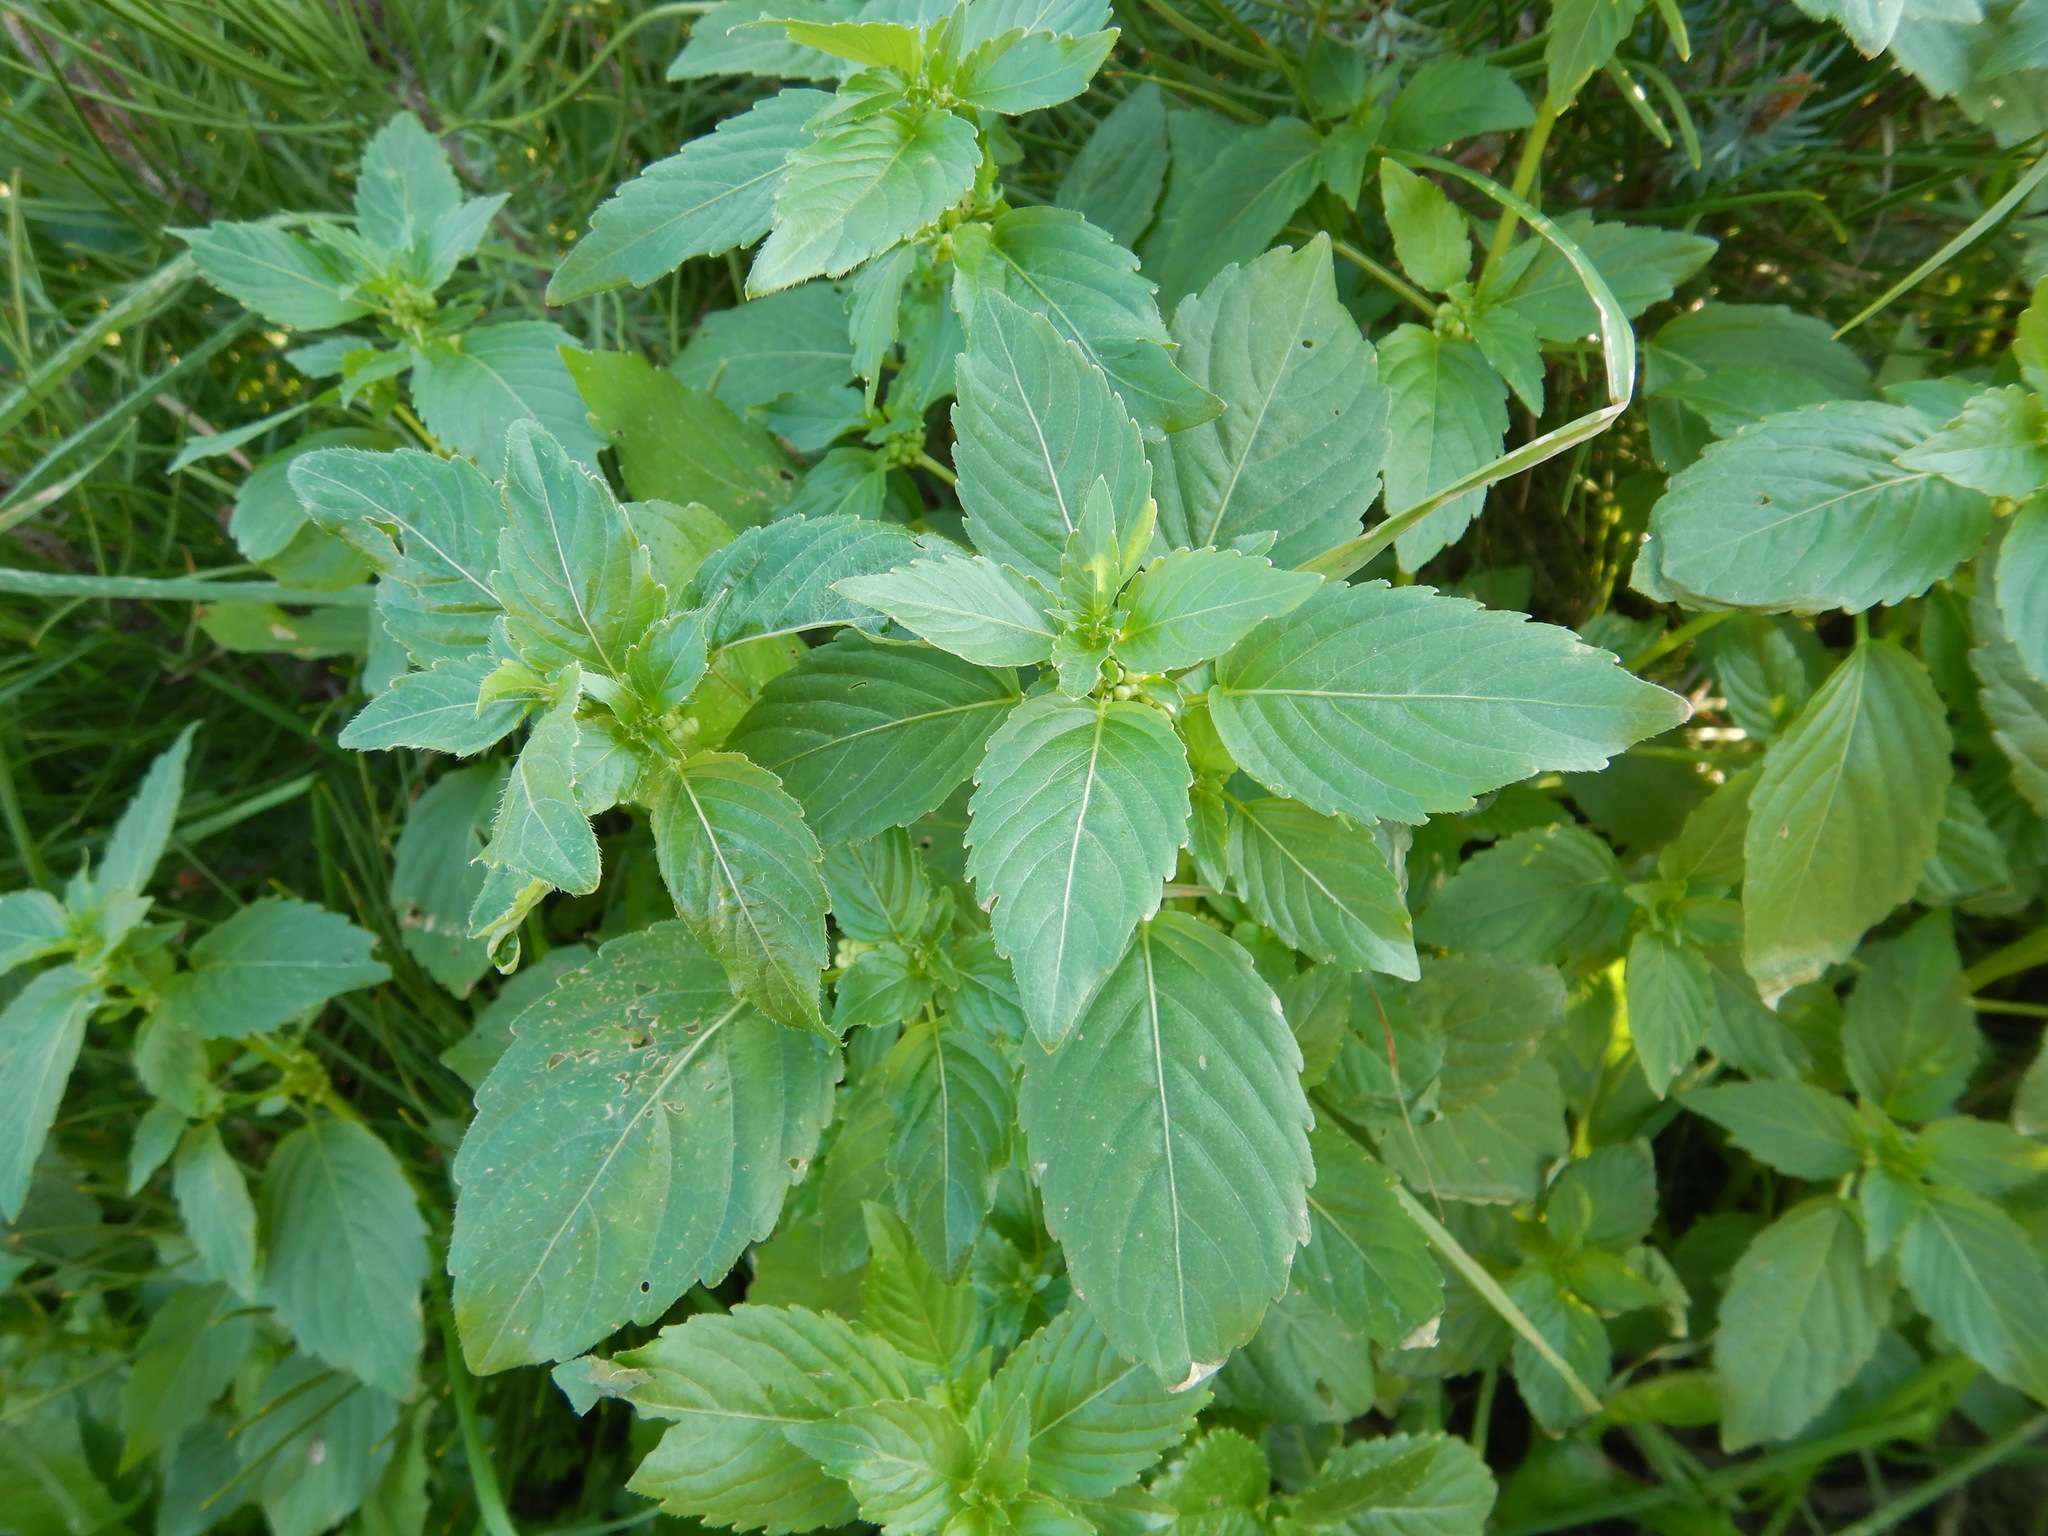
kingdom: Plantae
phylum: Tracheophyta
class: Magnoliopsida
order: Malpighiales
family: Euphorbiaceae
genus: Mercurialis
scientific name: Mercurialis annua
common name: Annual mercury
